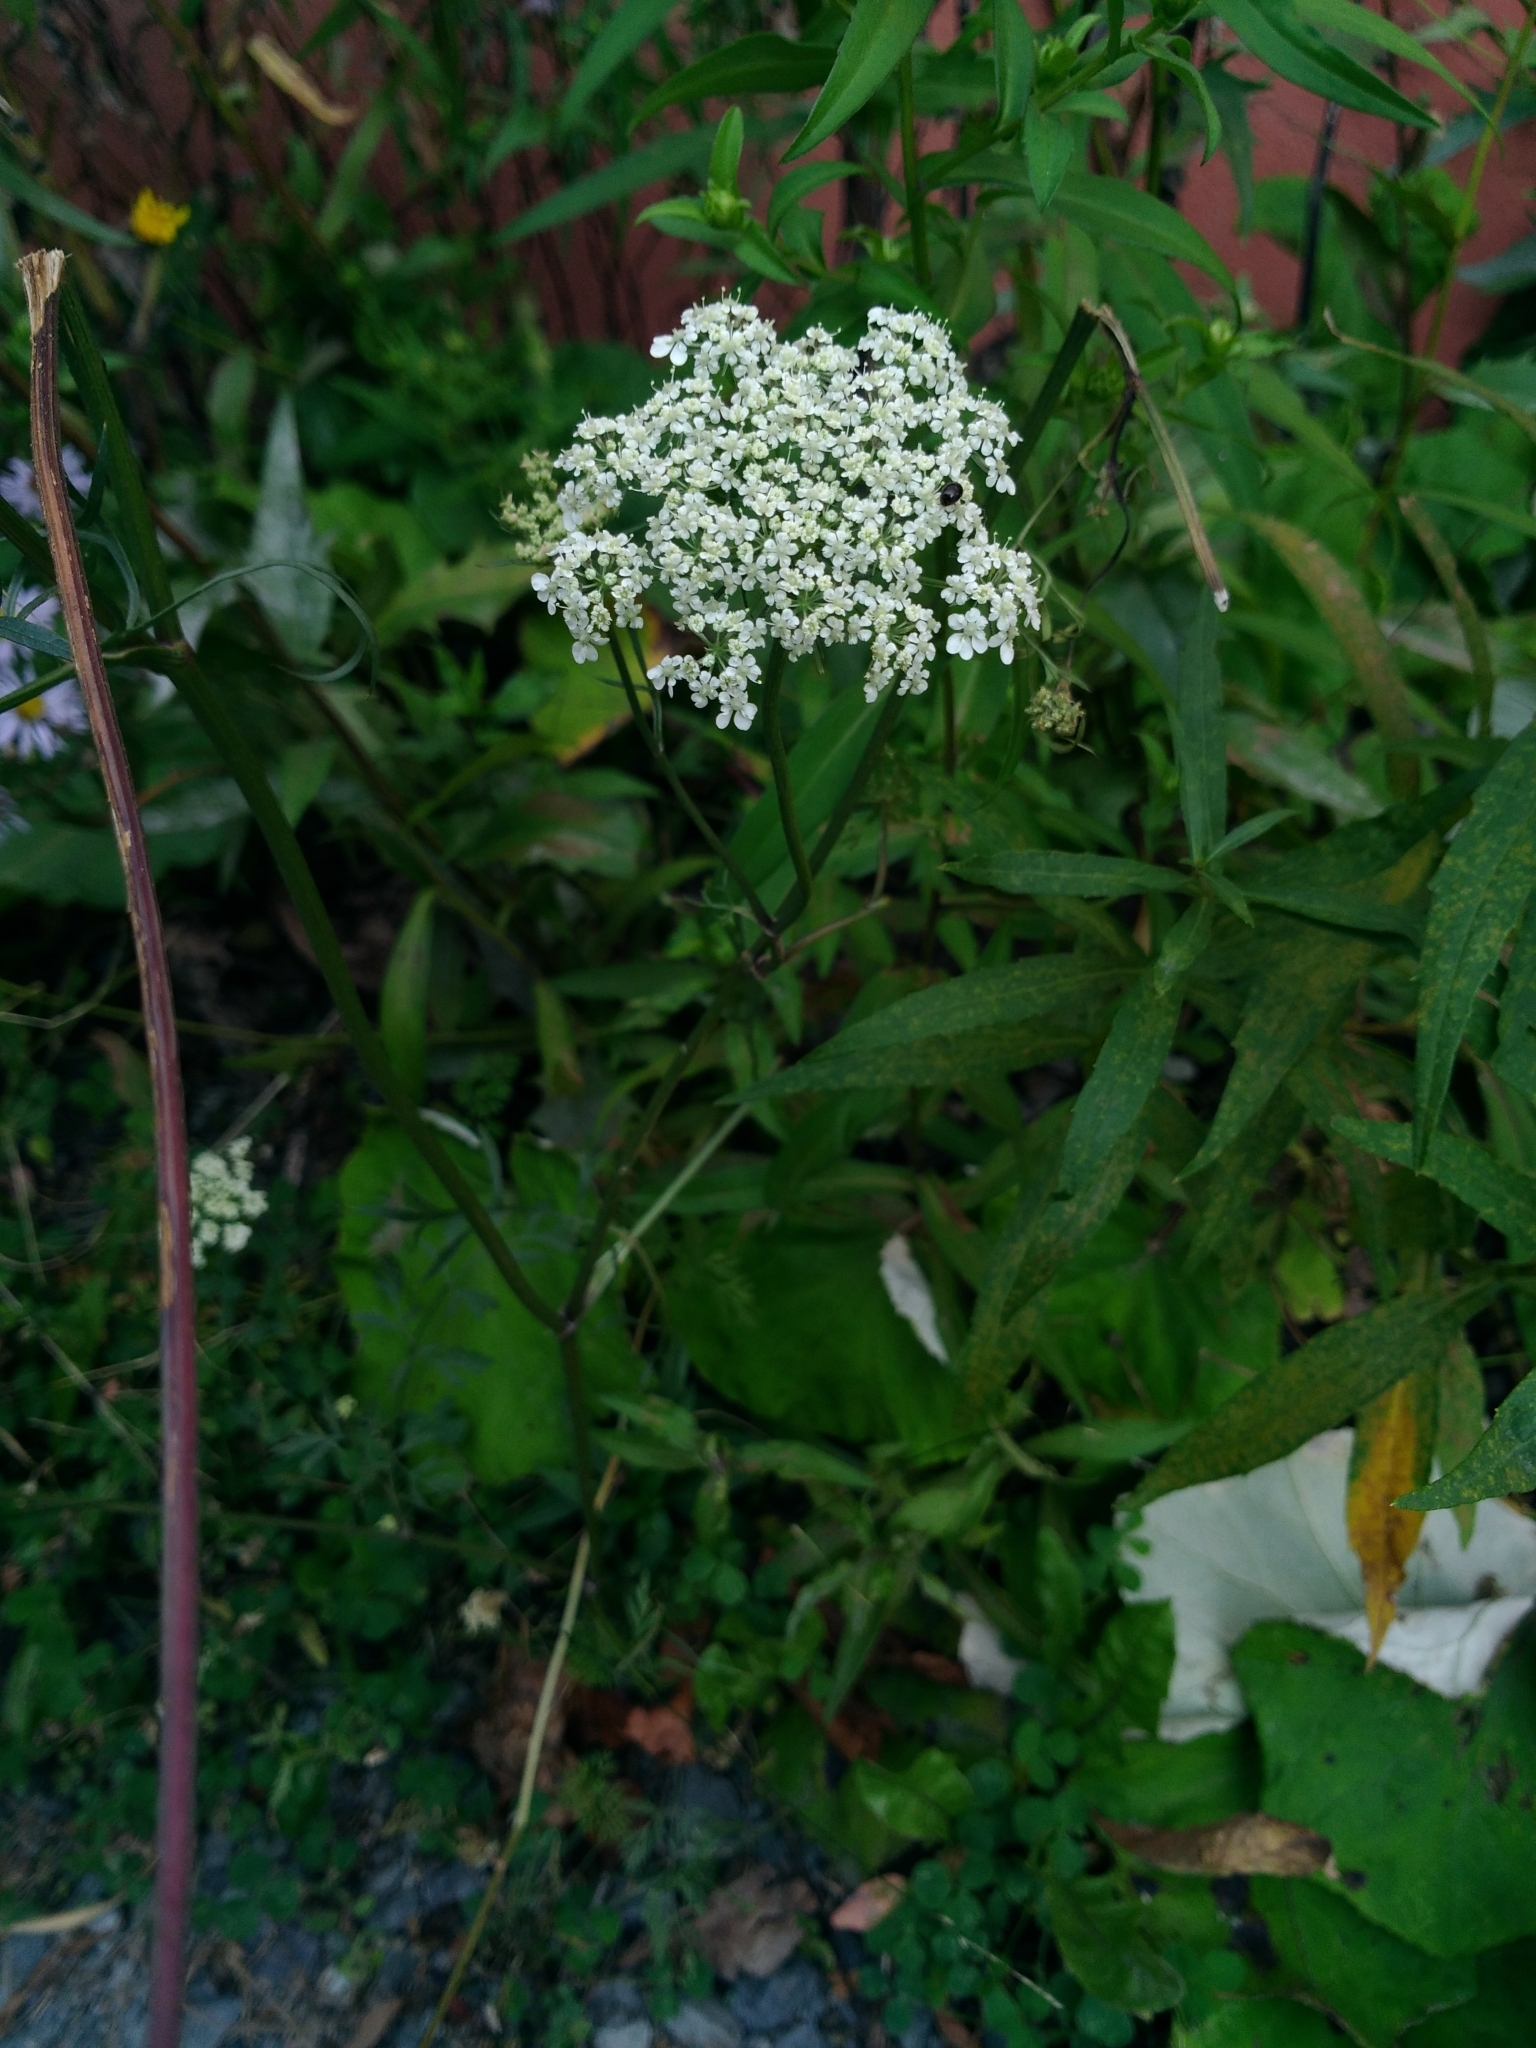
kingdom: Plantae
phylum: Tracheophyta
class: Magnoliopsida
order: Apiales
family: Apiaceae
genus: Daucus
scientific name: Daucus carota
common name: Wild carrot
